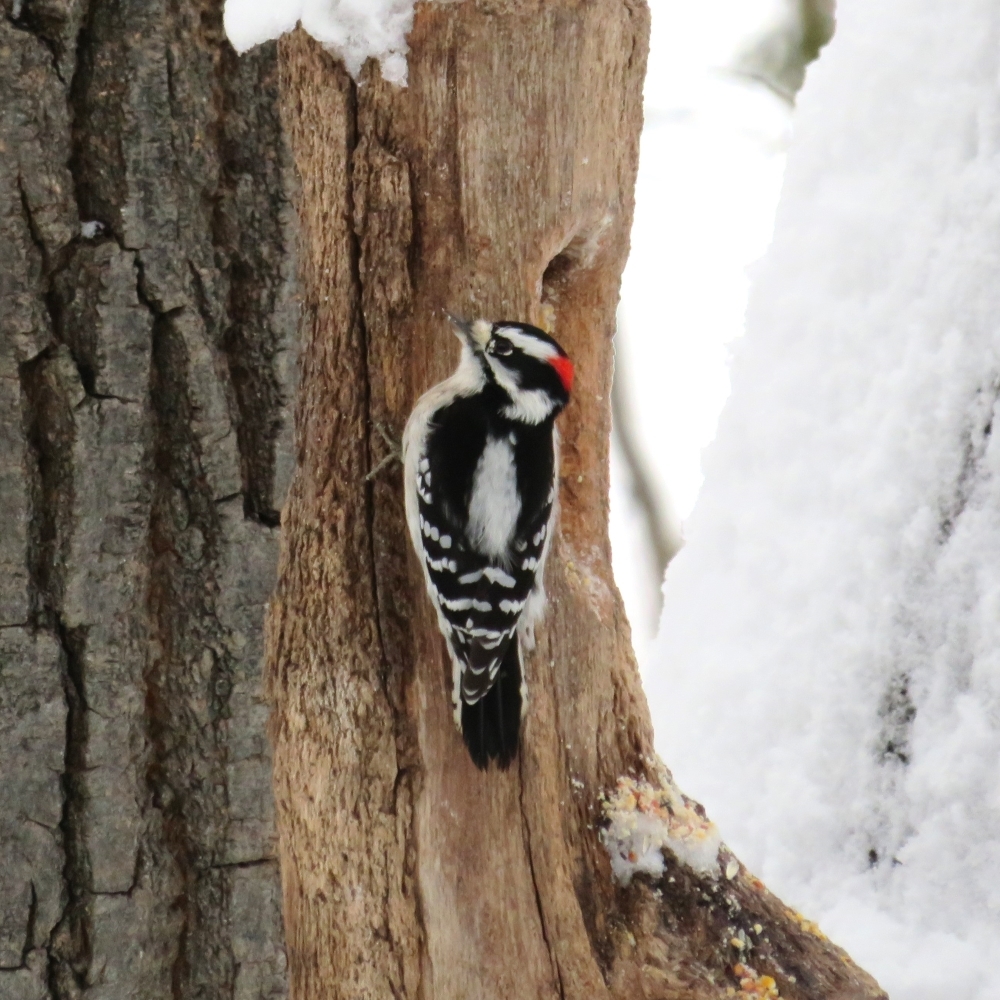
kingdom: Animalia
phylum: Chordata
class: Aves
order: Piciformes
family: Picidae
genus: Dryobates
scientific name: Dryobates pubescens
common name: Downy woodpecker
